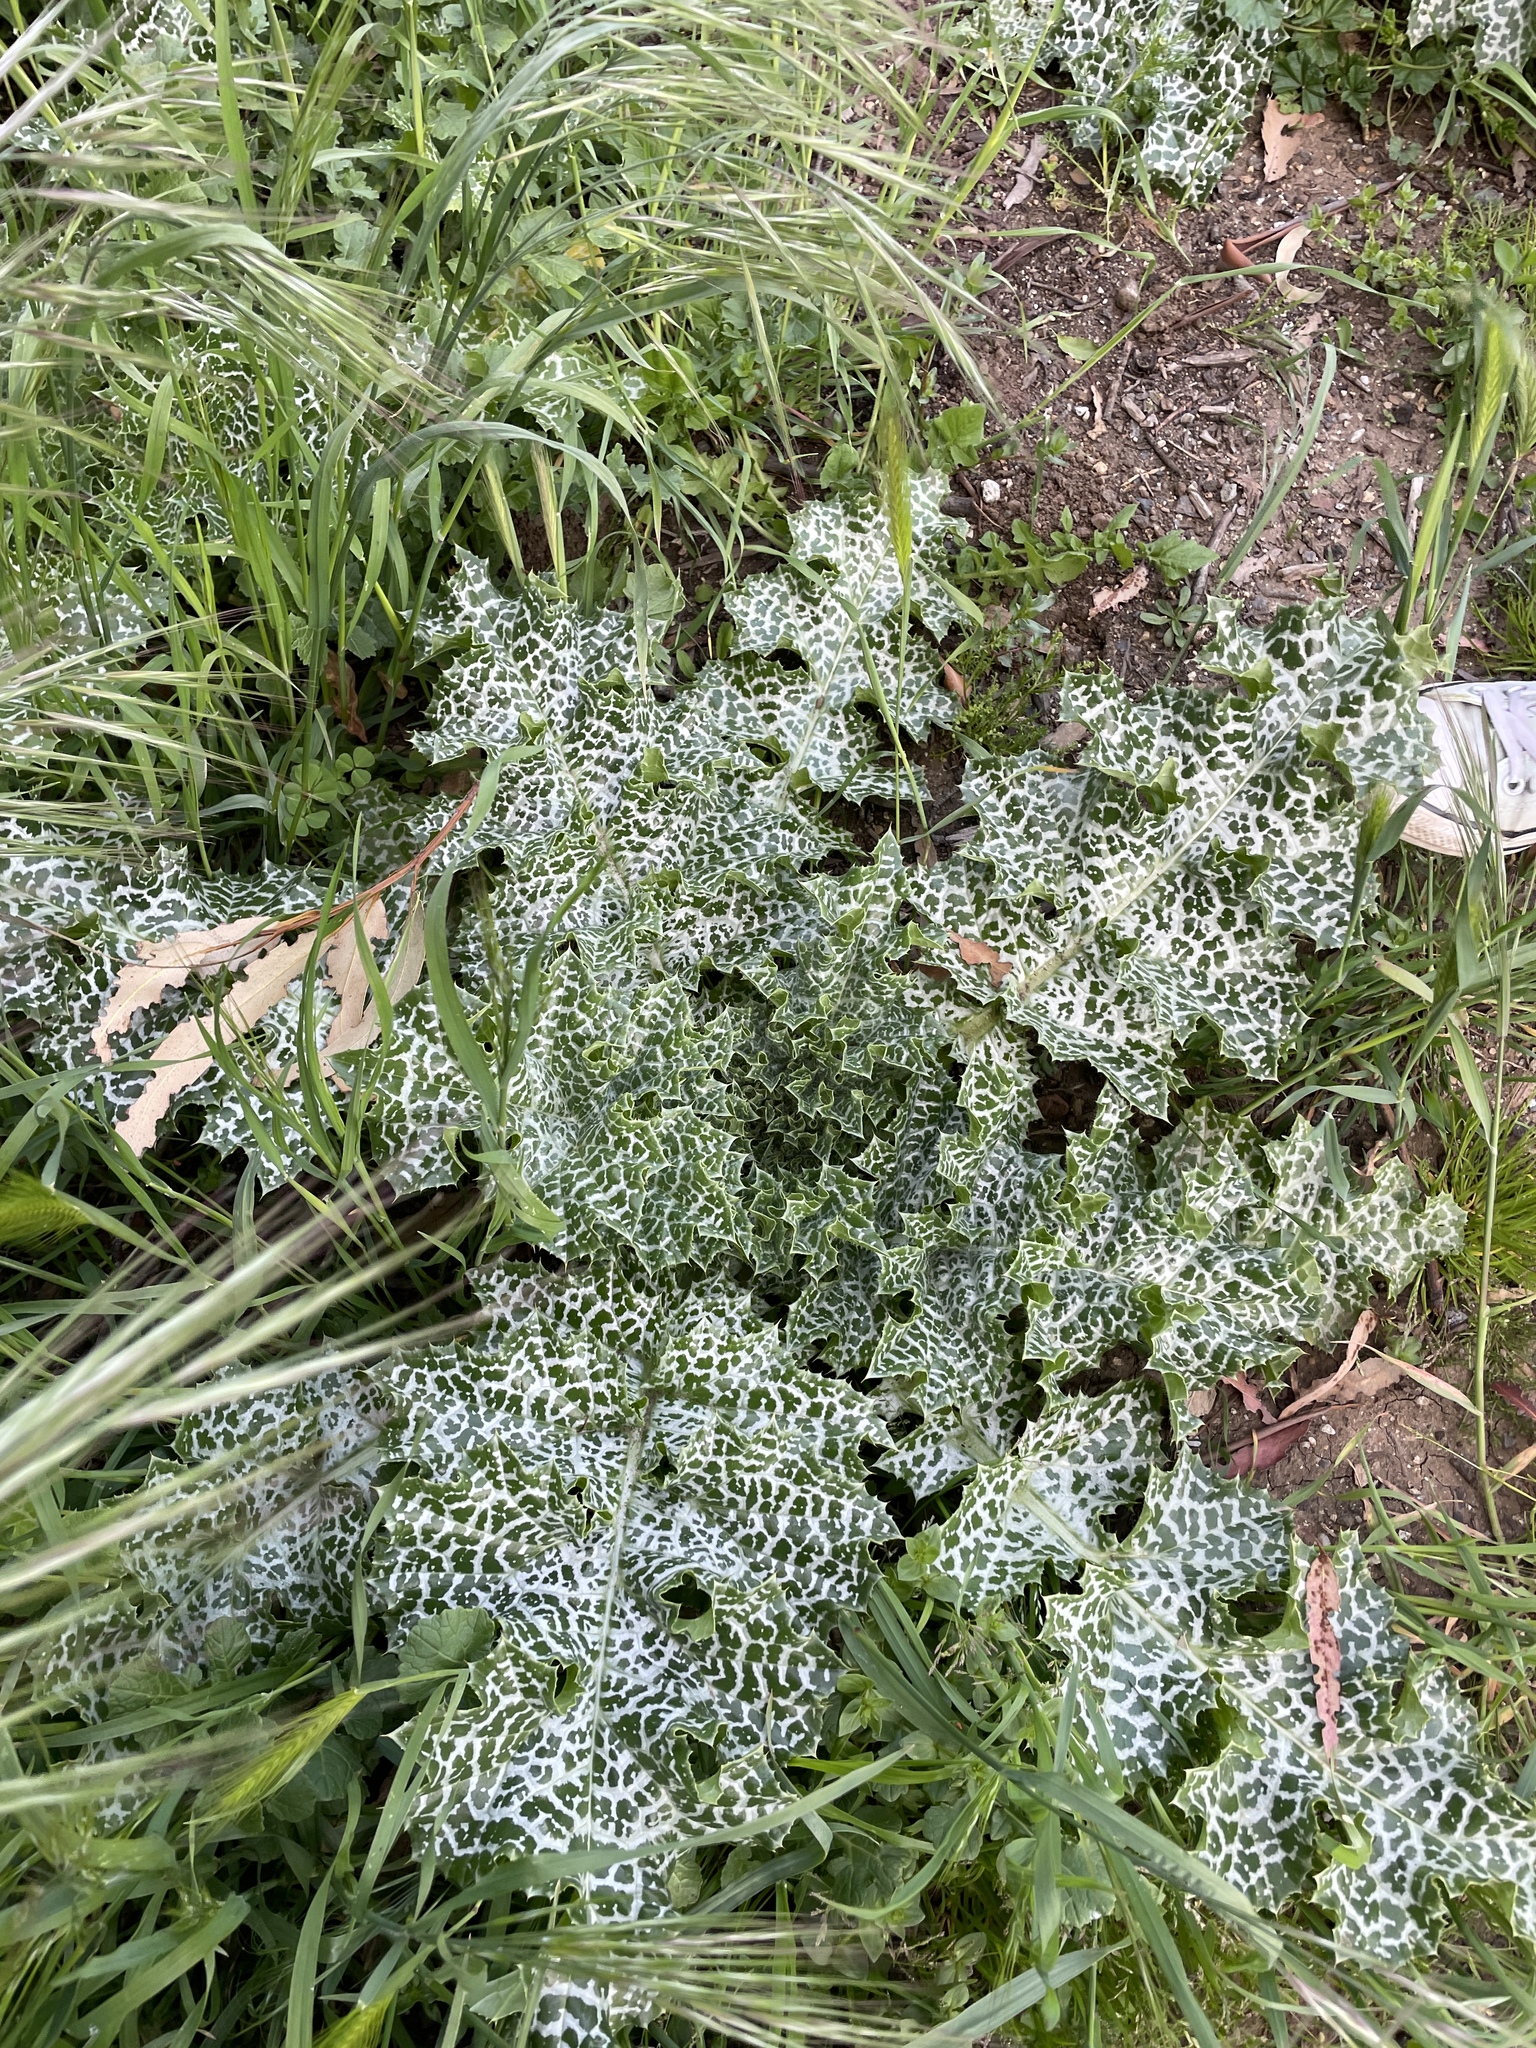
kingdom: Plantae
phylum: Tracheophyta
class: Magnoliopsida
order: Asterales
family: Asteraceae
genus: Silybum
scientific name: Silybum marianum
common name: Milk thistle
